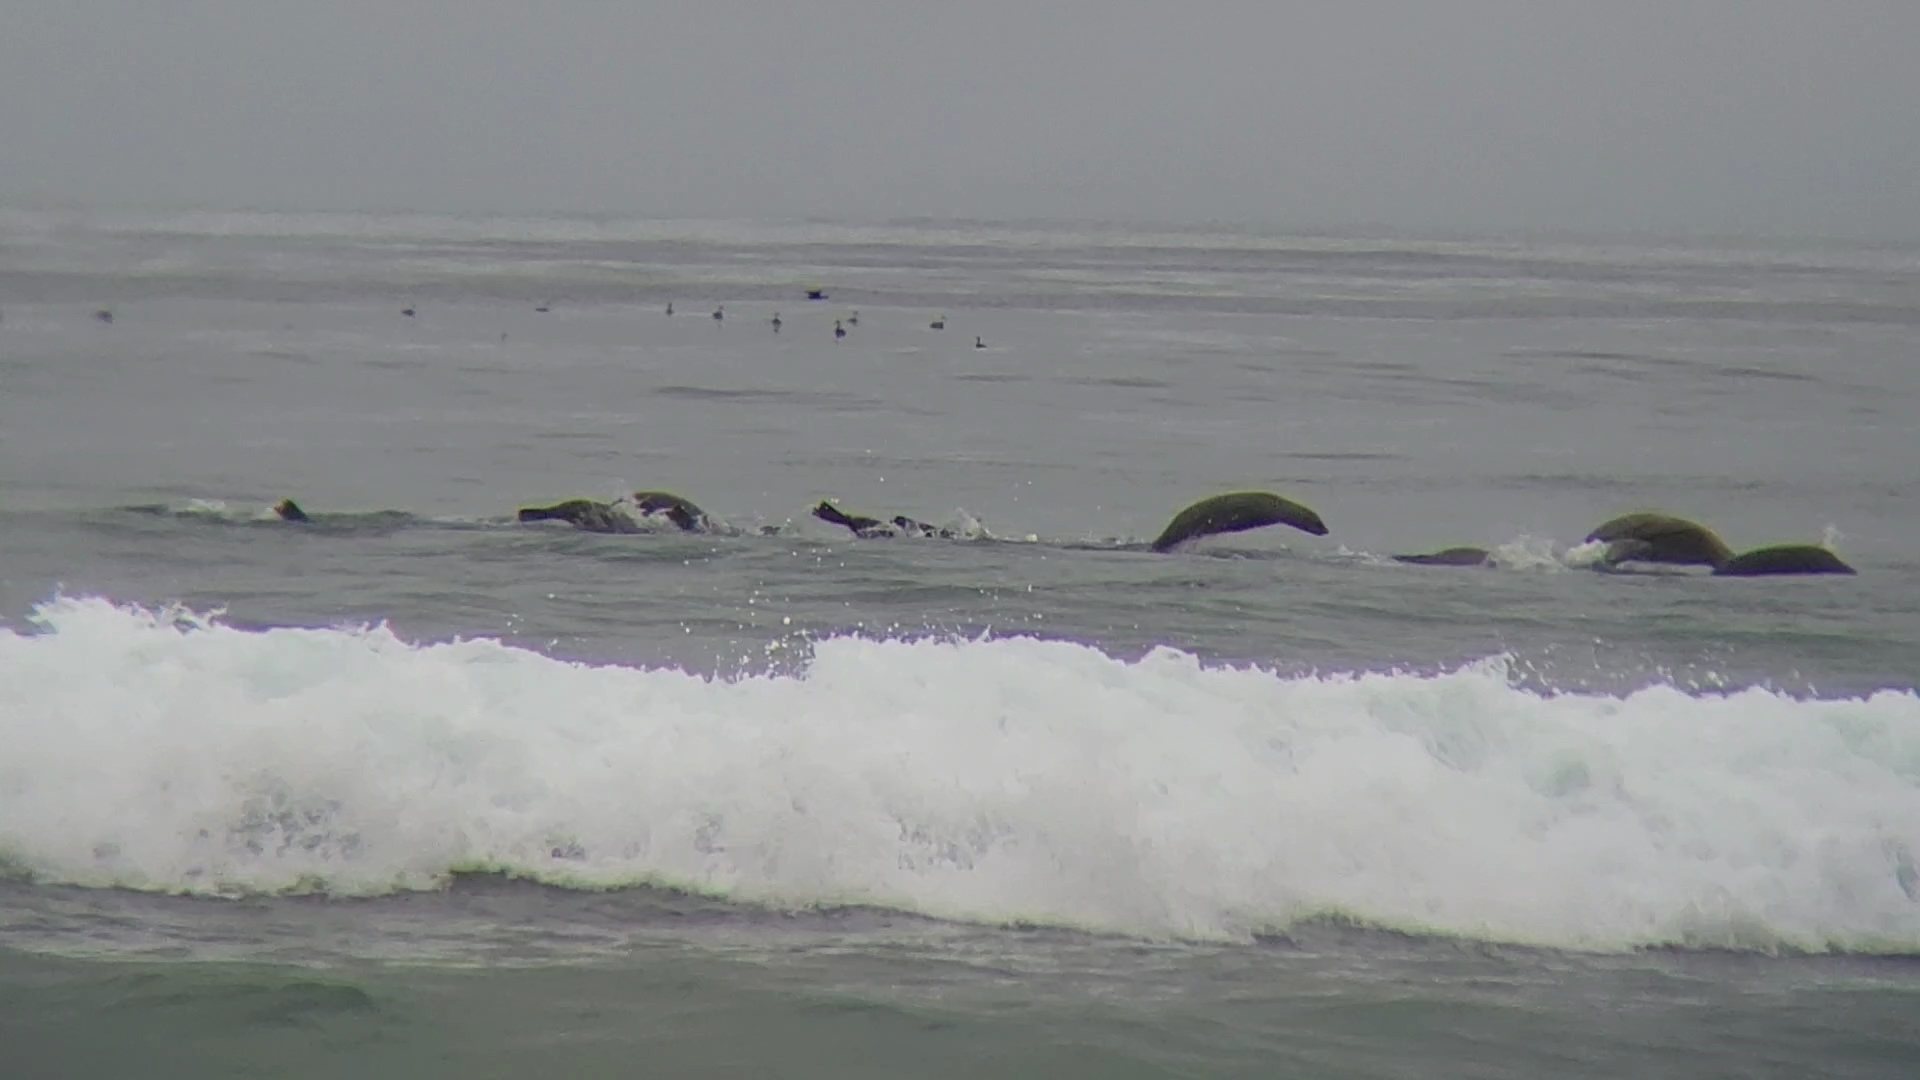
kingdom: Animalia
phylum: Chordata
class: Mammalia
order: Carnivora
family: Otariidae
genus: Zalophus
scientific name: Zalophus californianus
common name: California sea lion
